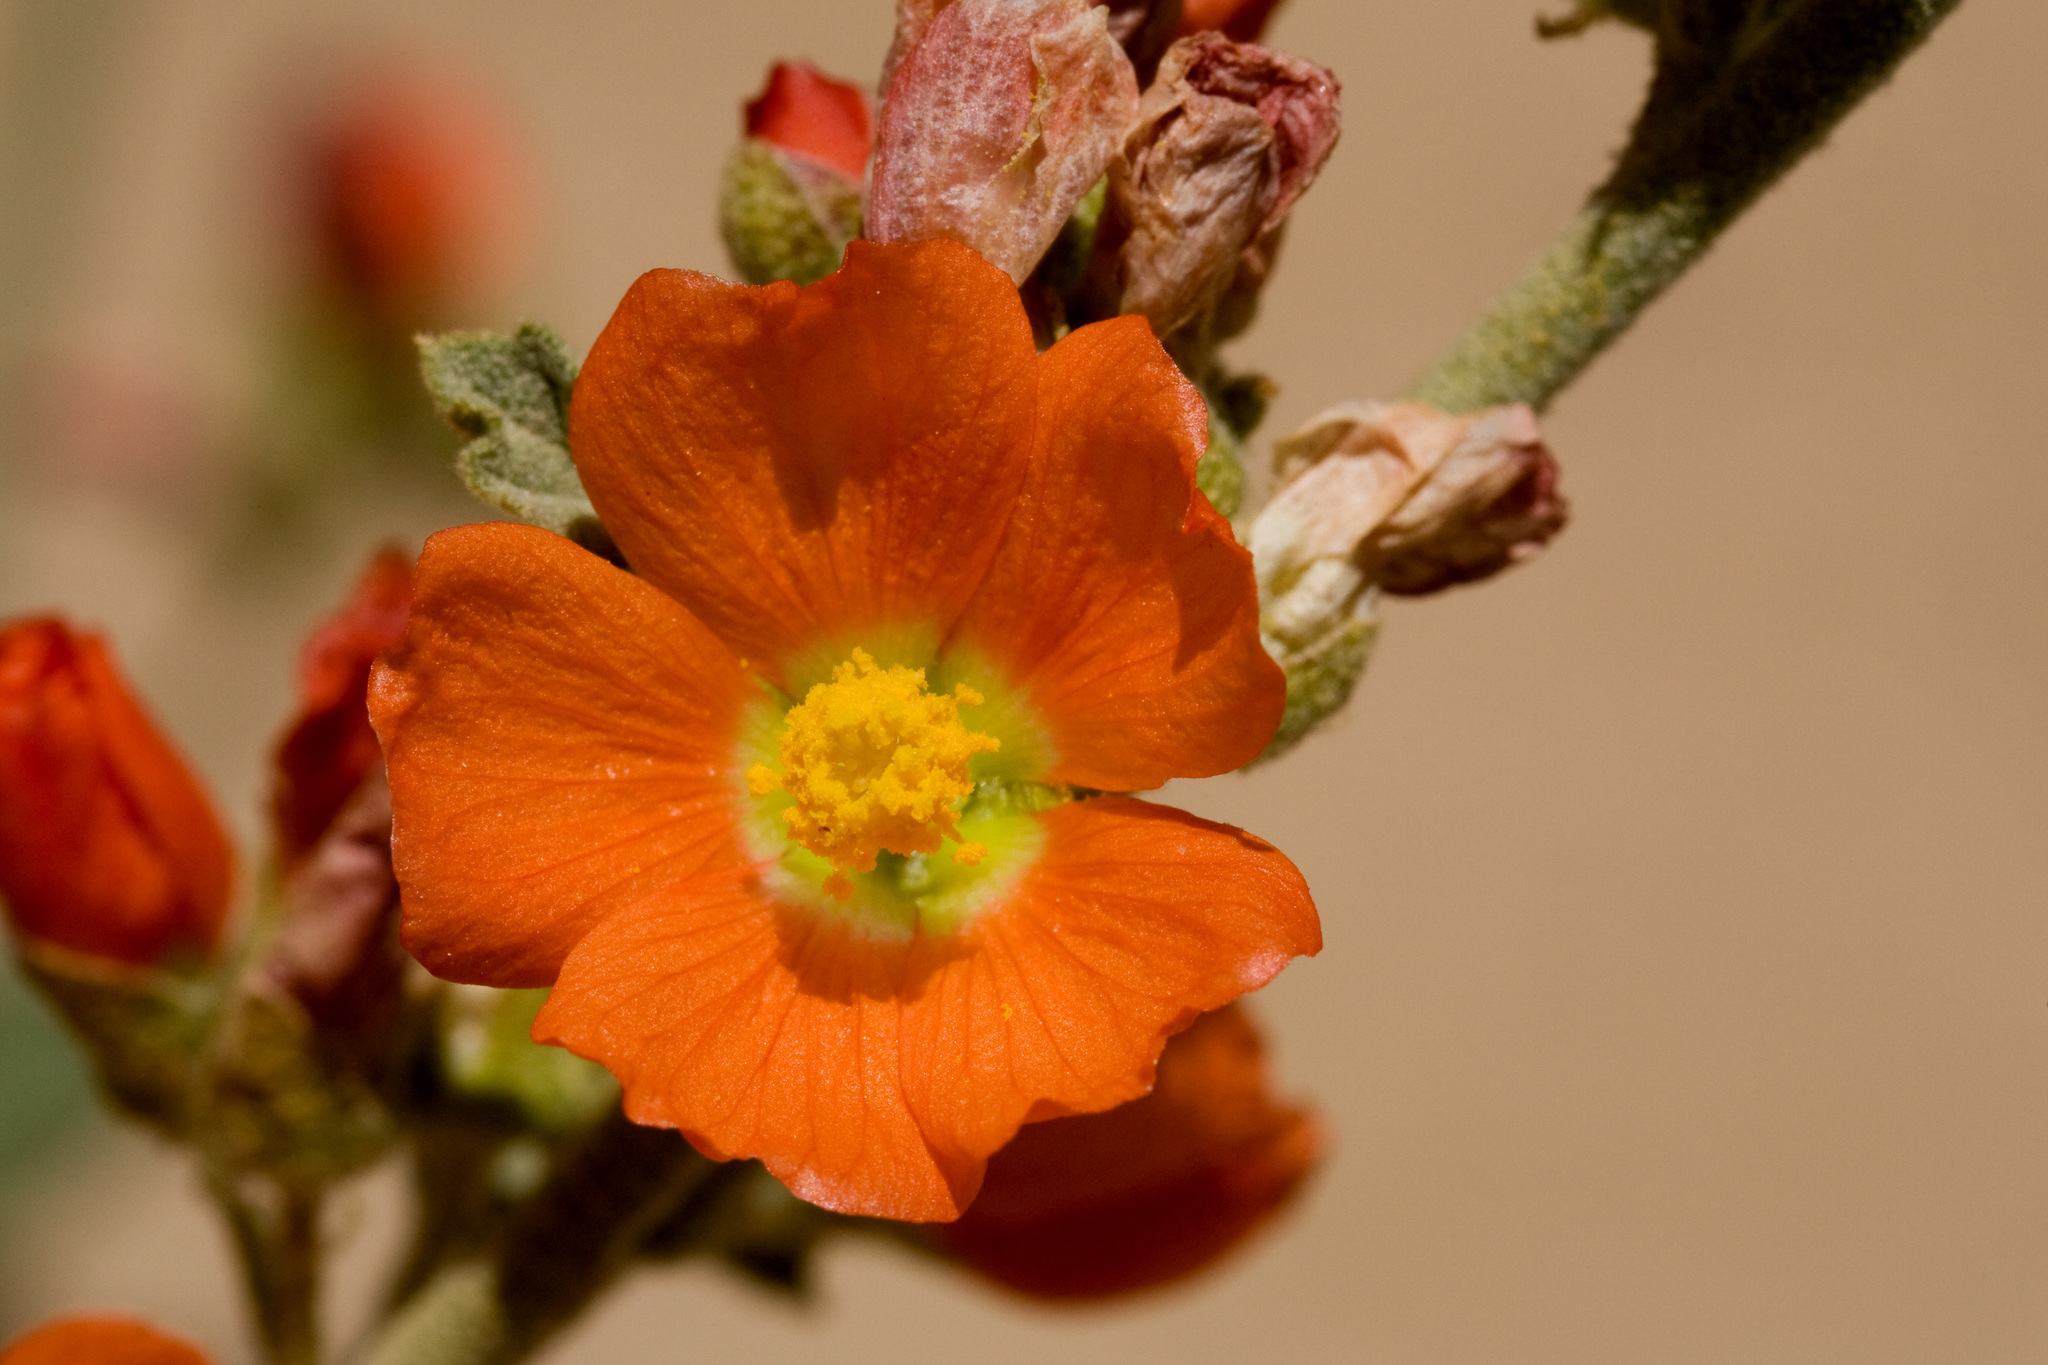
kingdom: Plantae
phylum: Tracheophyta
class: Magnoliopsida
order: Malvales
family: Malvaceae
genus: Sphaeralcea
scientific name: Sphaeralcea parvifolia
